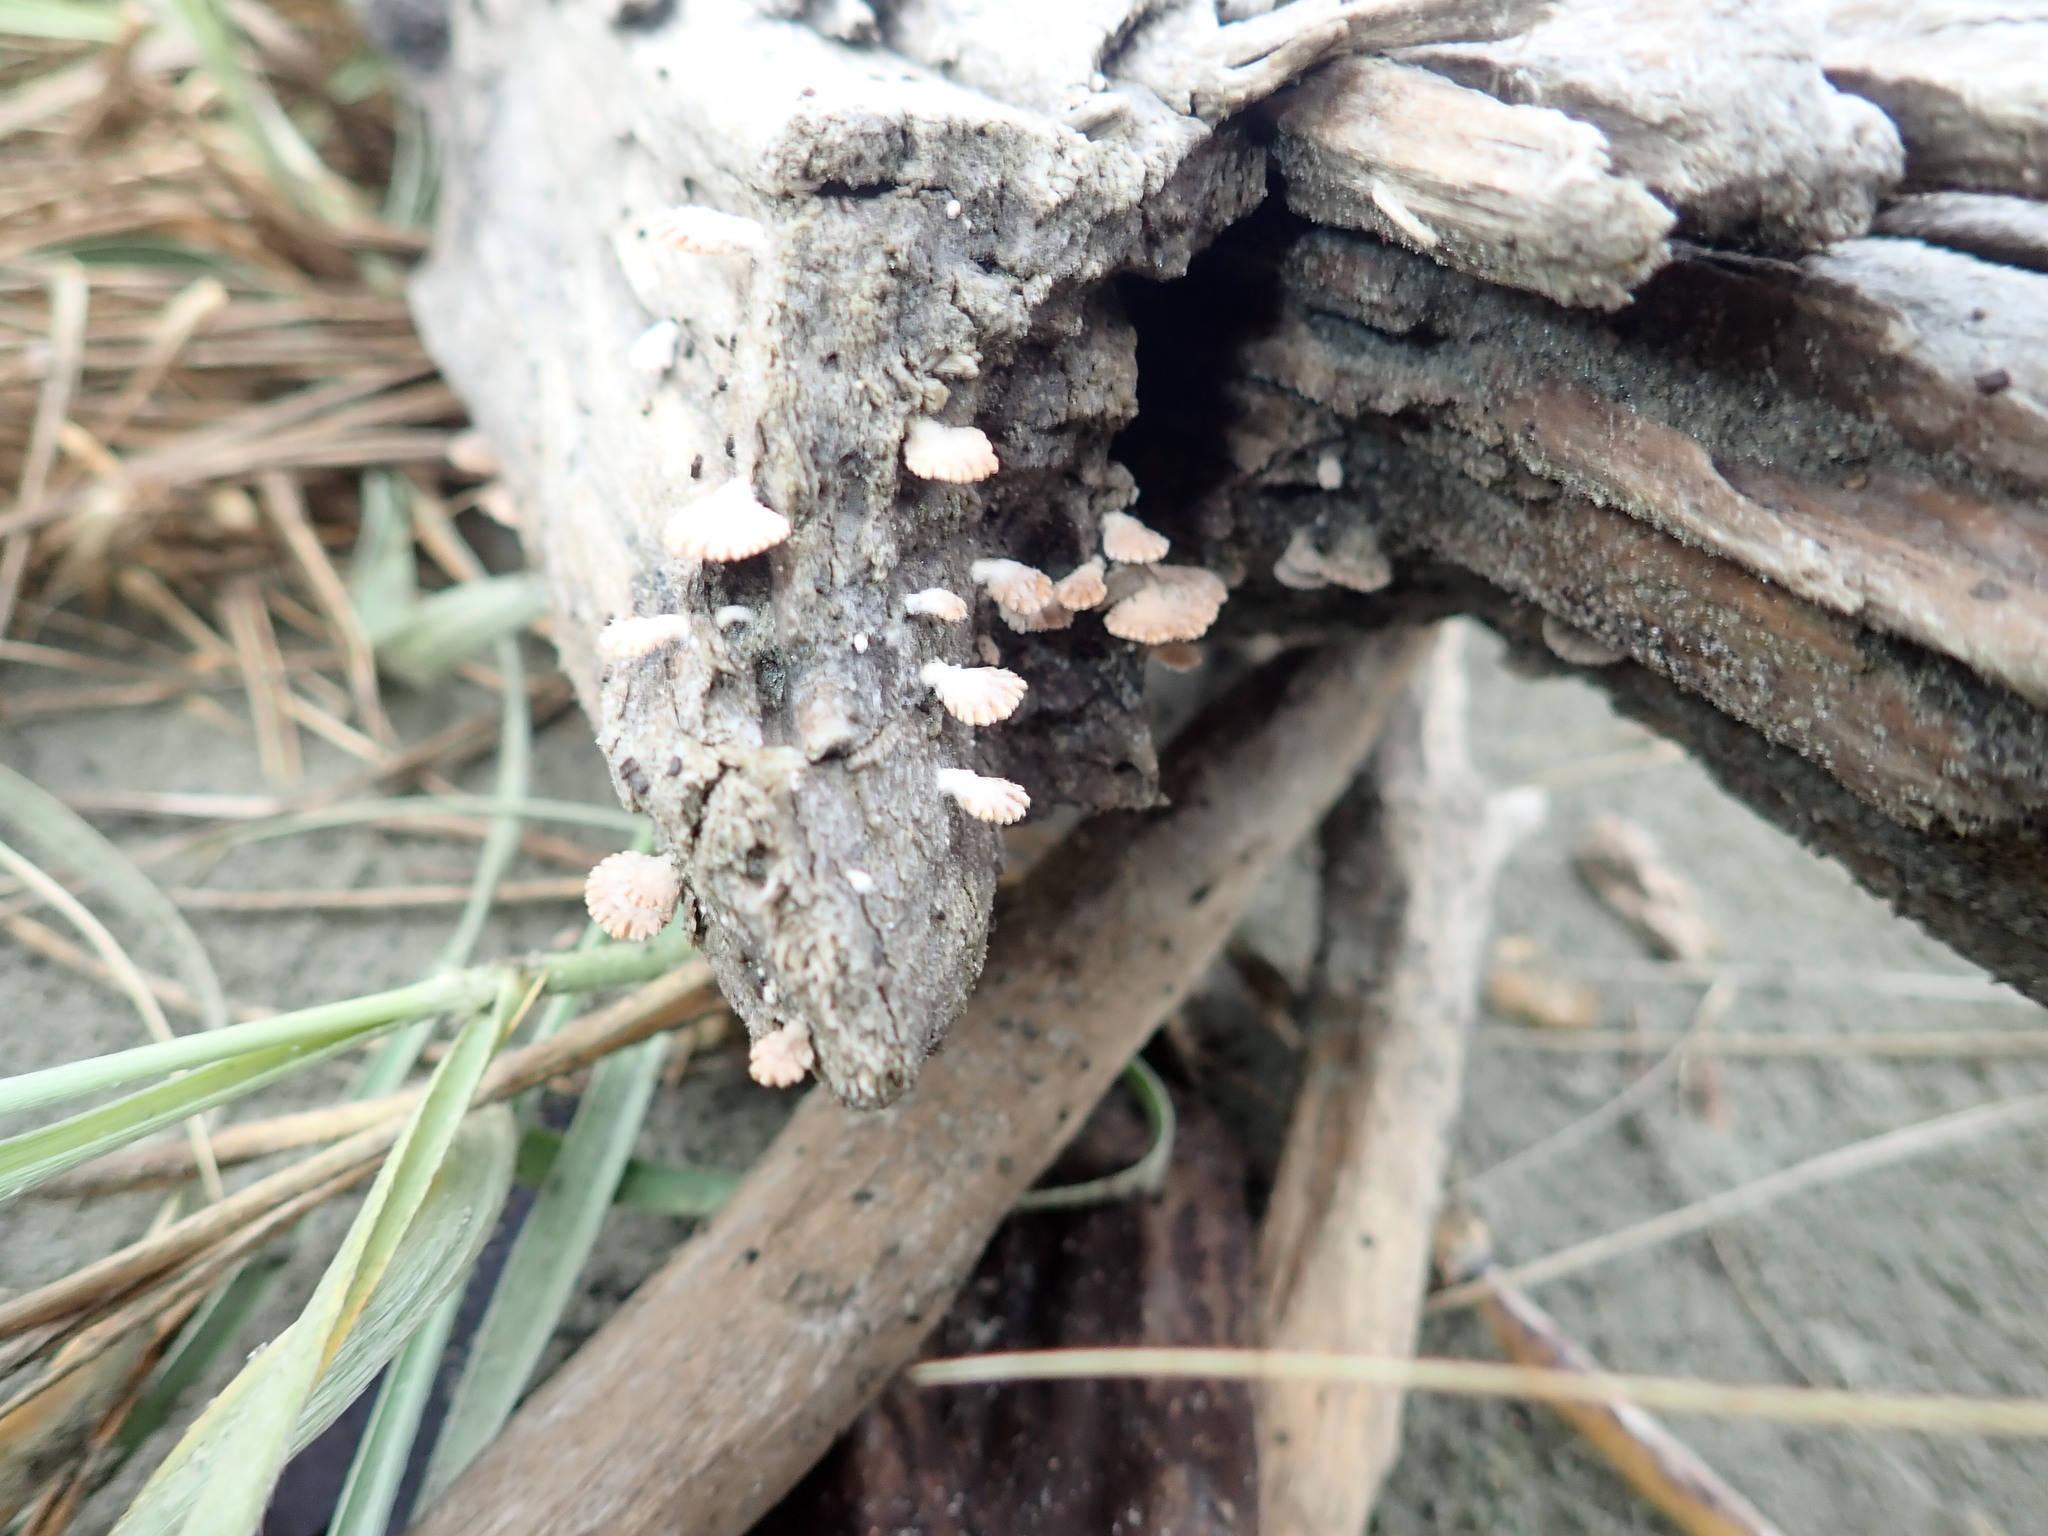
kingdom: Fungi
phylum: Basidiomycota
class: Agaricomycetes
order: Agaricales
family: Schizophyllaceae
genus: Schizophyllum
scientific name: Schizophyllum commune
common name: Common porecrust
